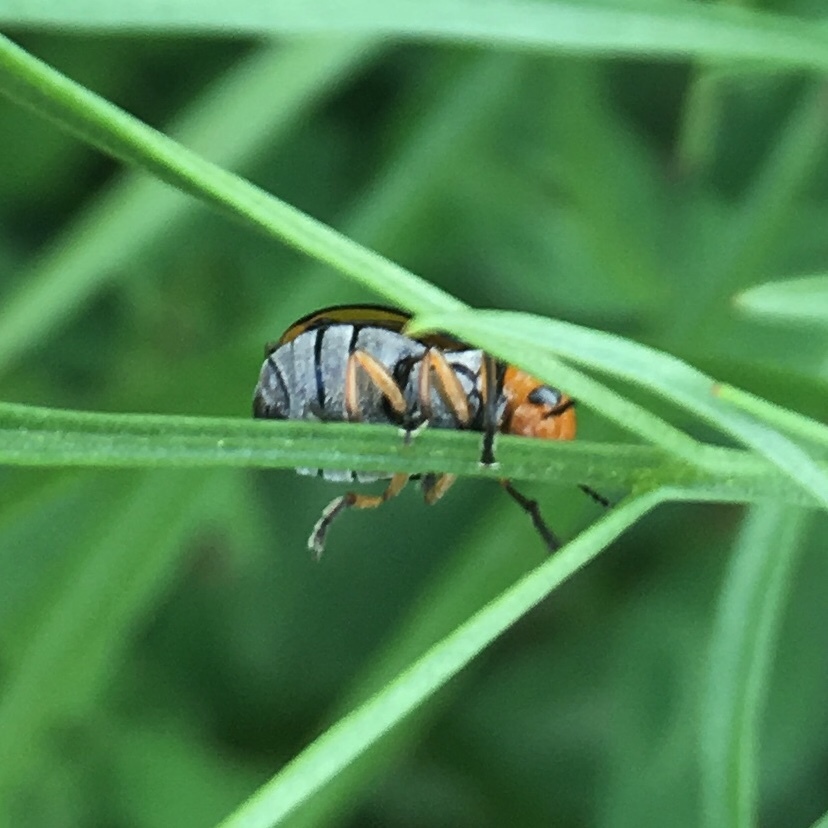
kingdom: Animalia
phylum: Arthropoda
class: Insecta
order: Coleoptera
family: Chrysomelidae
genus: Anomoea
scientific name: Anomoea laticlavia
